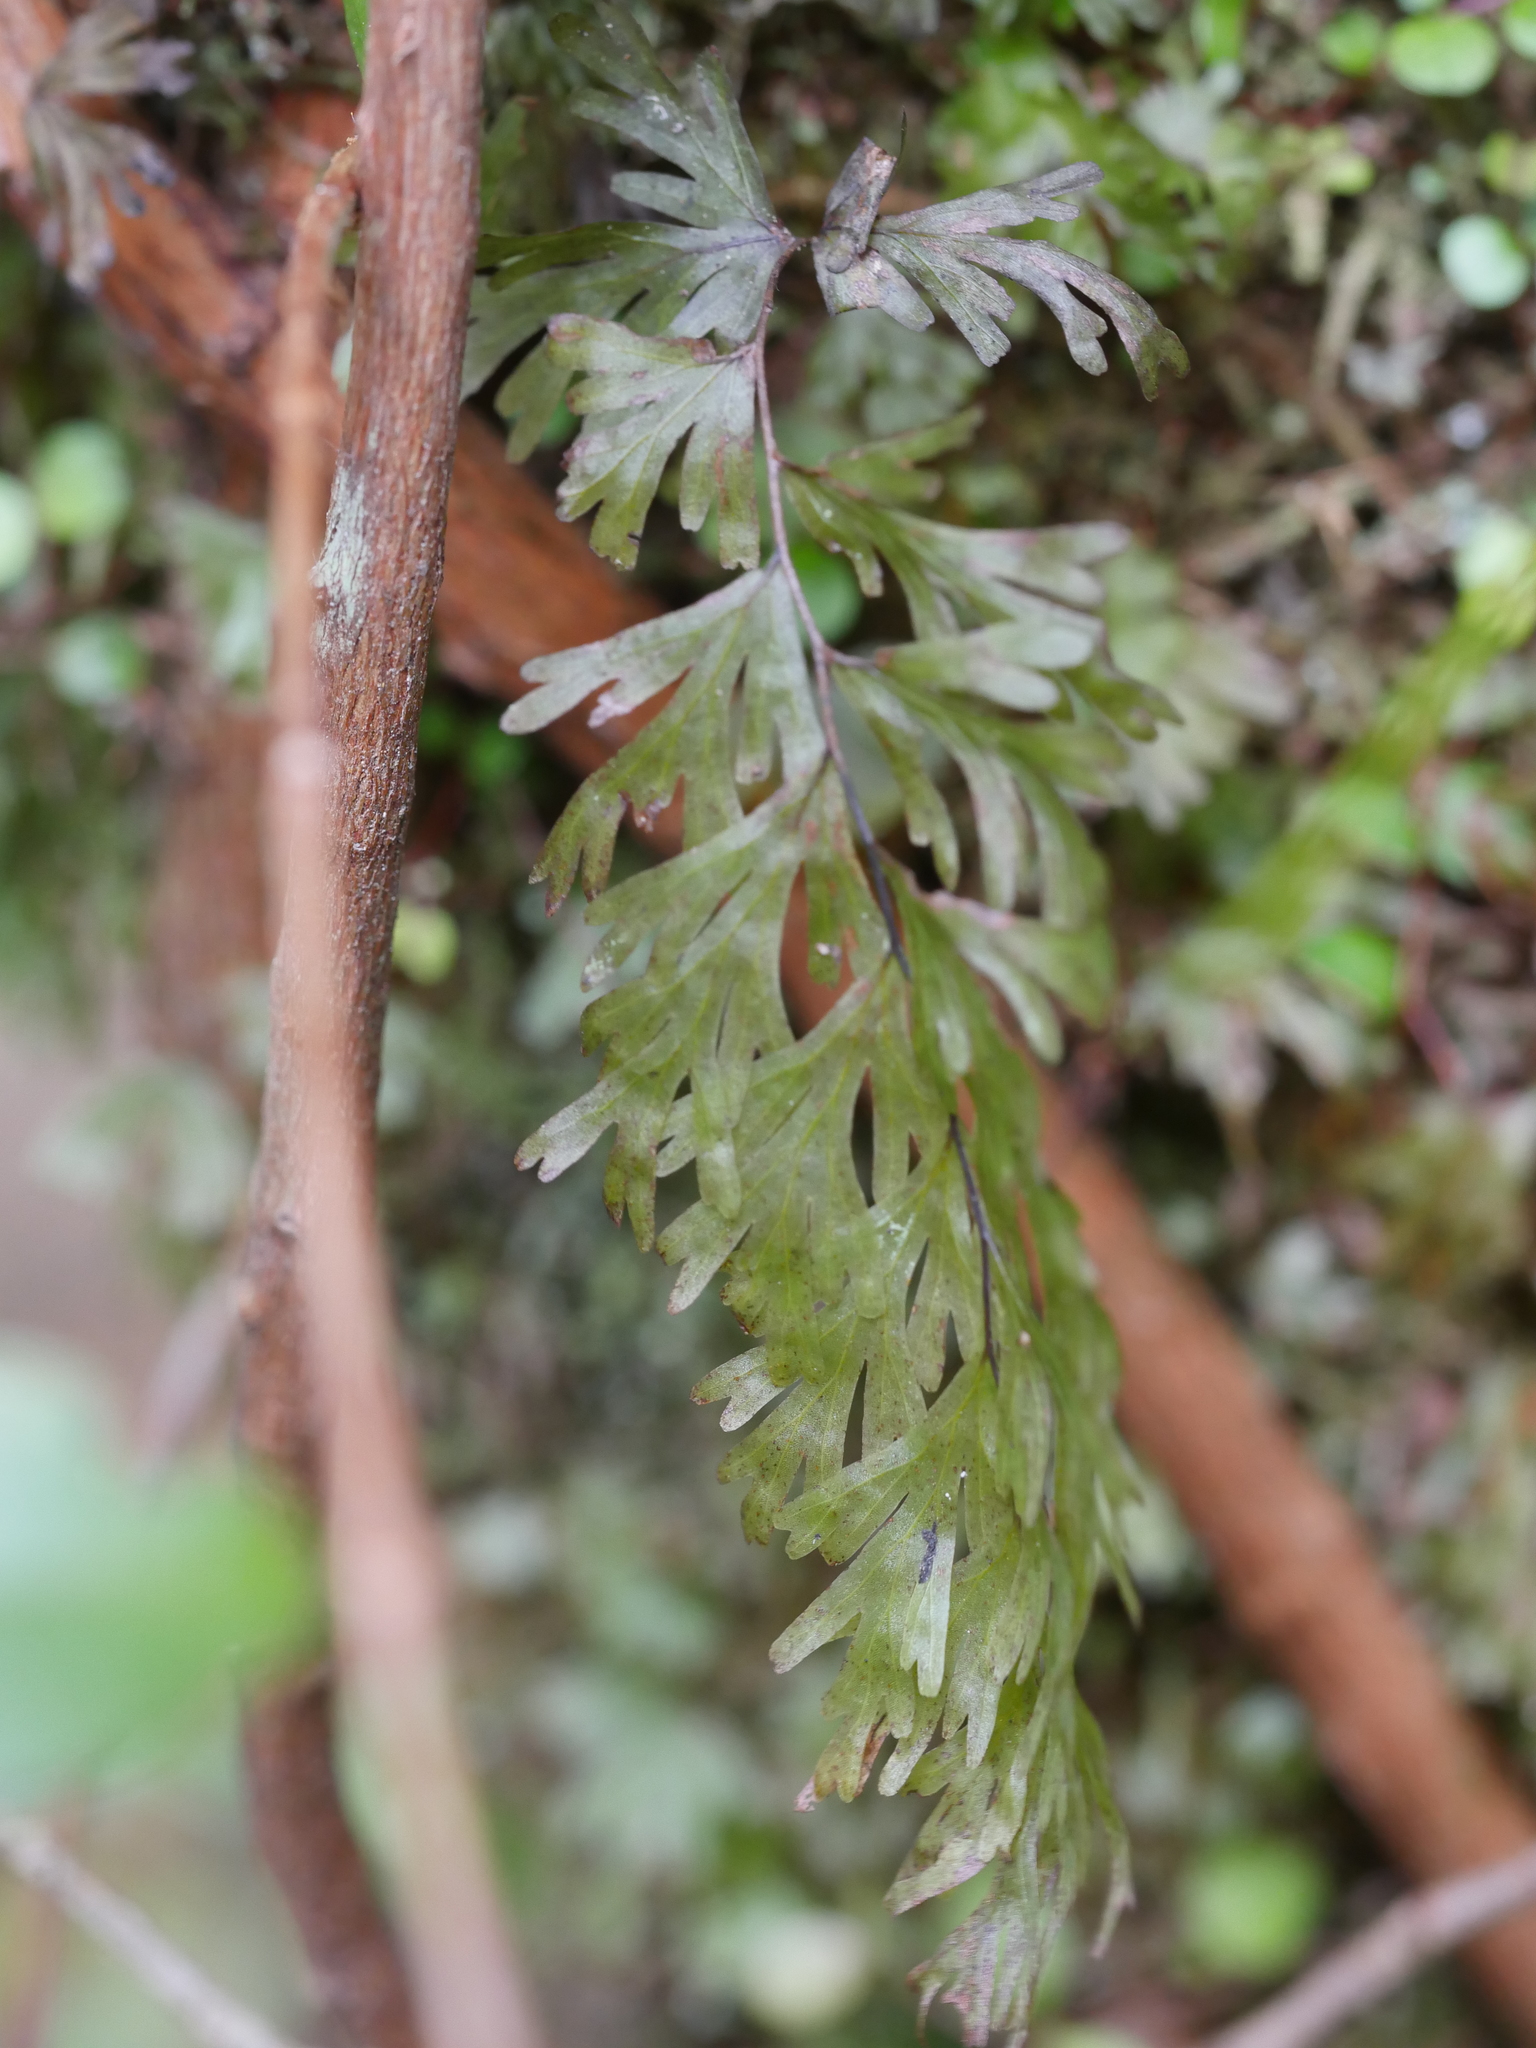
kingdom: Plantae
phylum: Tracheophyta
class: Polypodiopsida
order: Hymenophyllales
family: Hymenophyllaceae
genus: Hymenophyllum
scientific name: Hymenophyllum flabellatum
